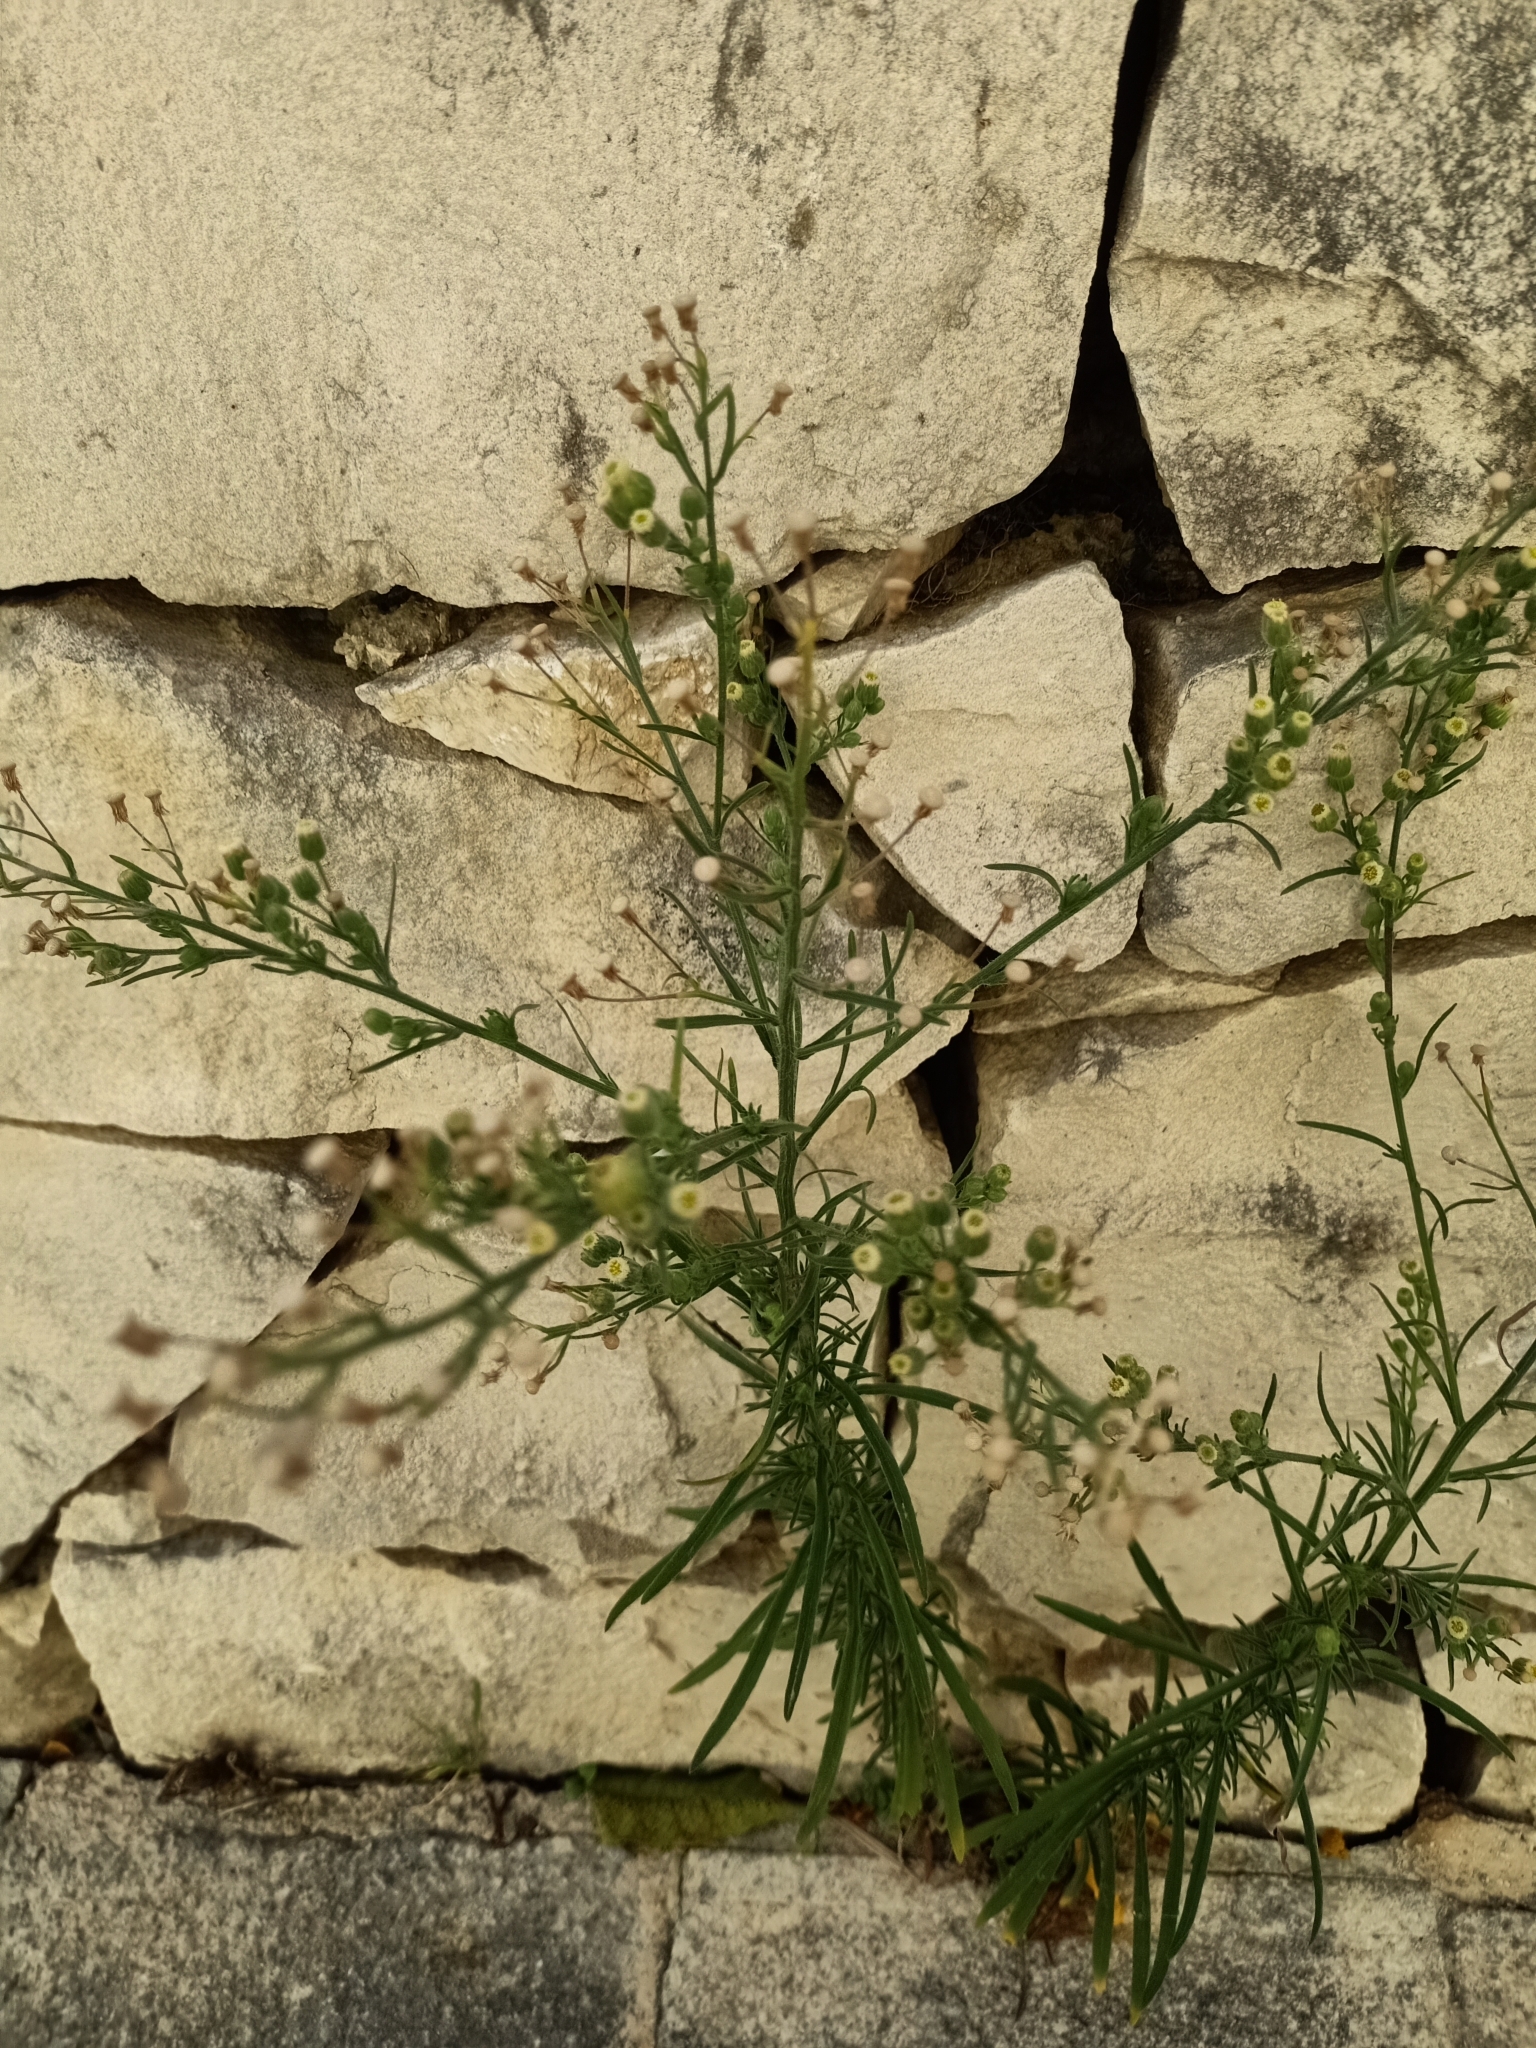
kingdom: Plantae
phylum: Tracheophyta
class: Magnoliopsida
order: Asterales
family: Asteraceae
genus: Erigeron
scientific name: Erigeron bonariensis
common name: Argentine fleabane
